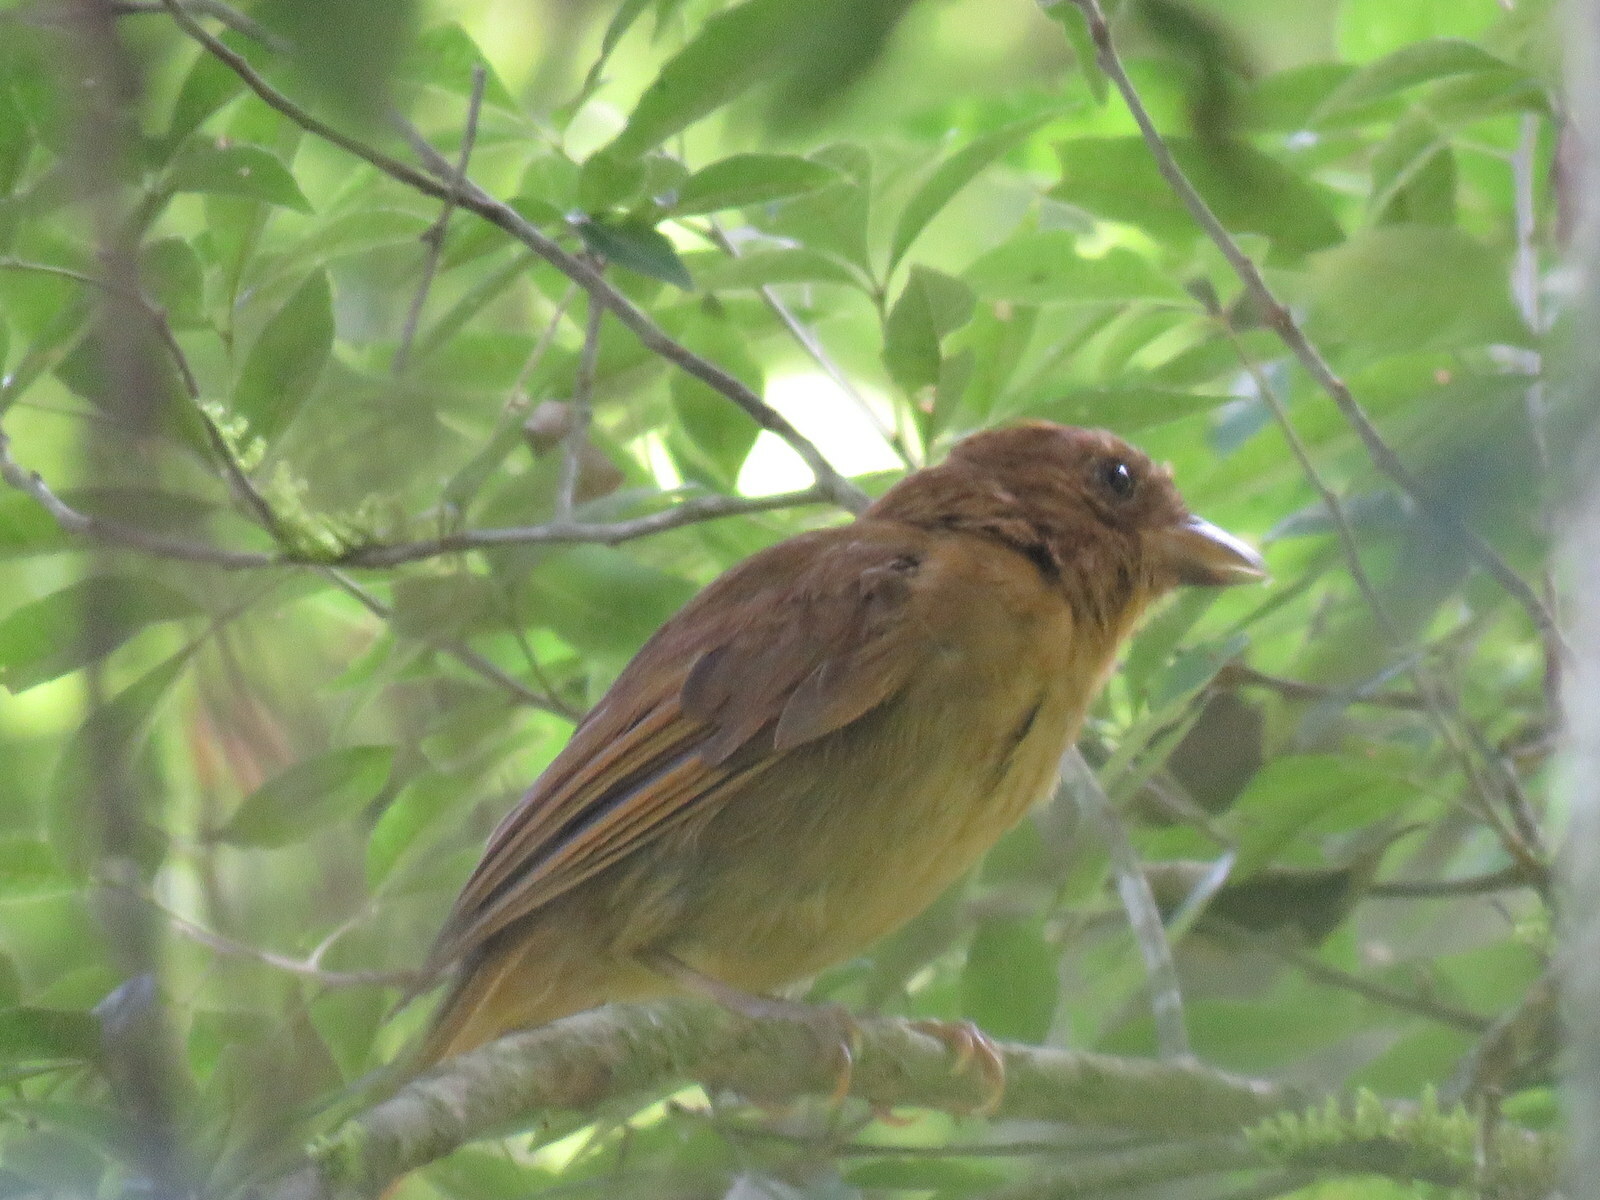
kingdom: Animalia
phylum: Chordata
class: Aves
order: Passeriformes
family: Cardinalidae
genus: Habia
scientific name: Habia rubica
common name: Red-crowned ant-tanager
